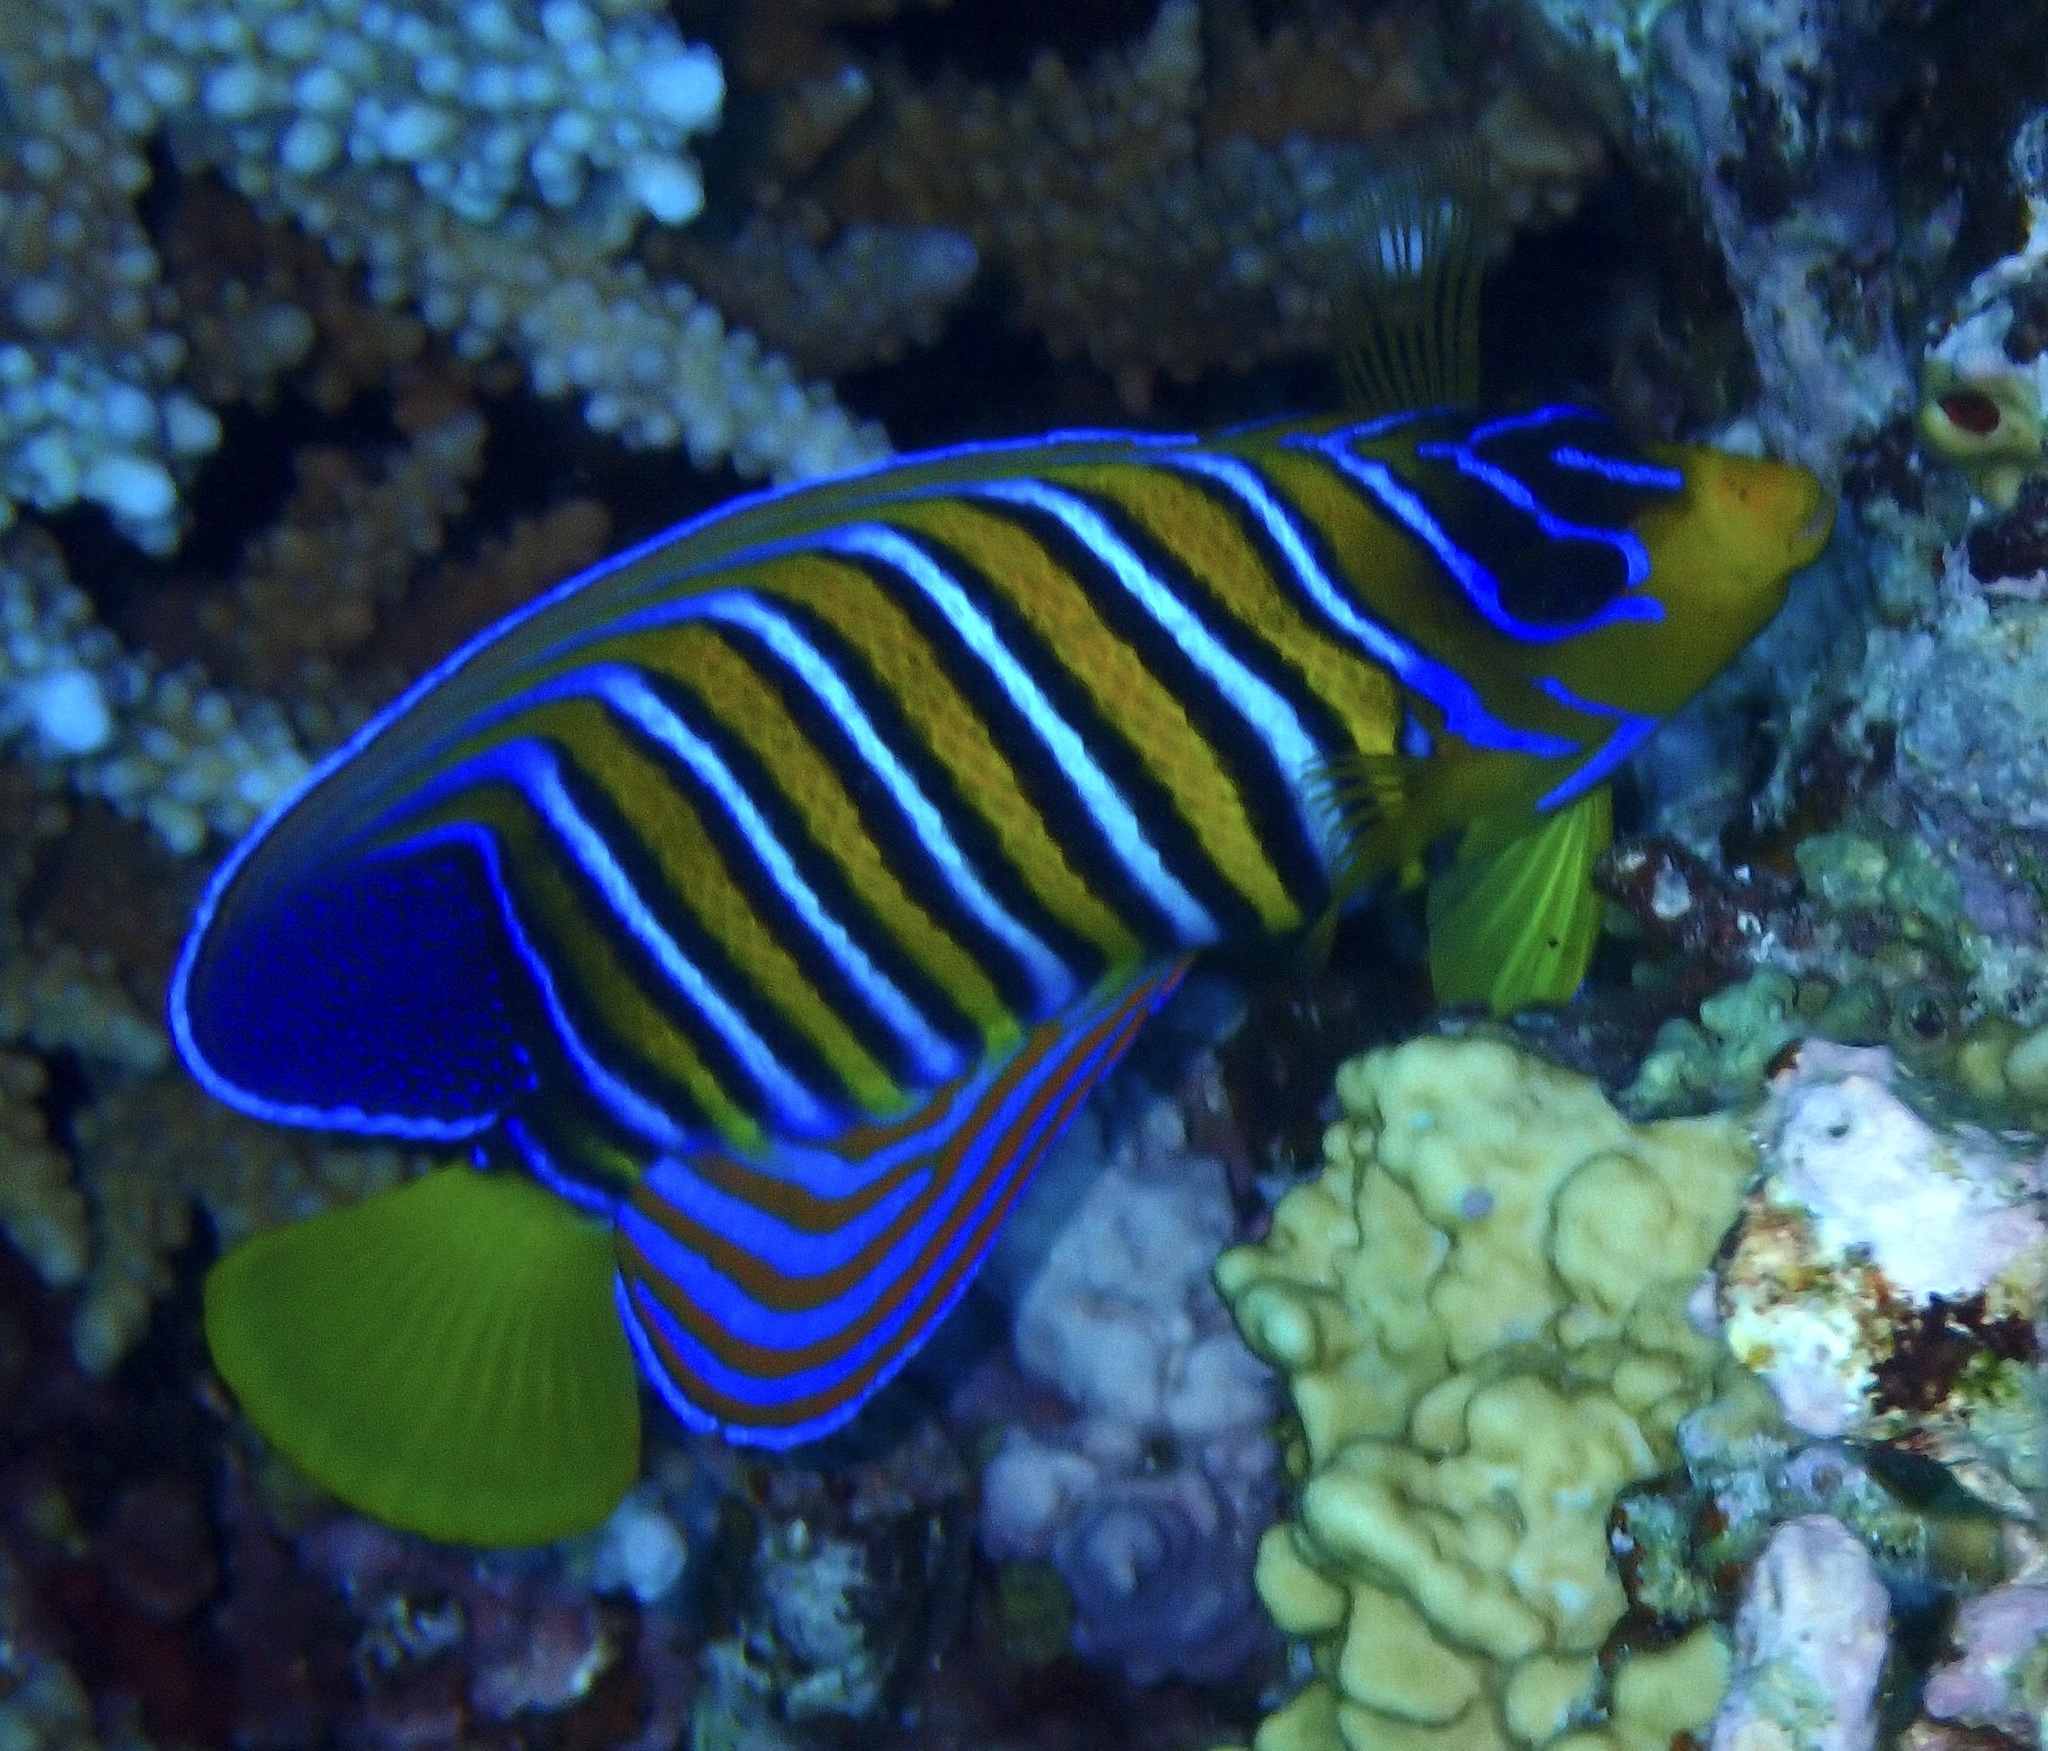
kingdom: Animalia
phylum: Chordata
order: Perciformes
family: Pomacanthidae
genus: Pygoplites
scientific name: Pygoplites diacanthus
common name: Regal angelfish
